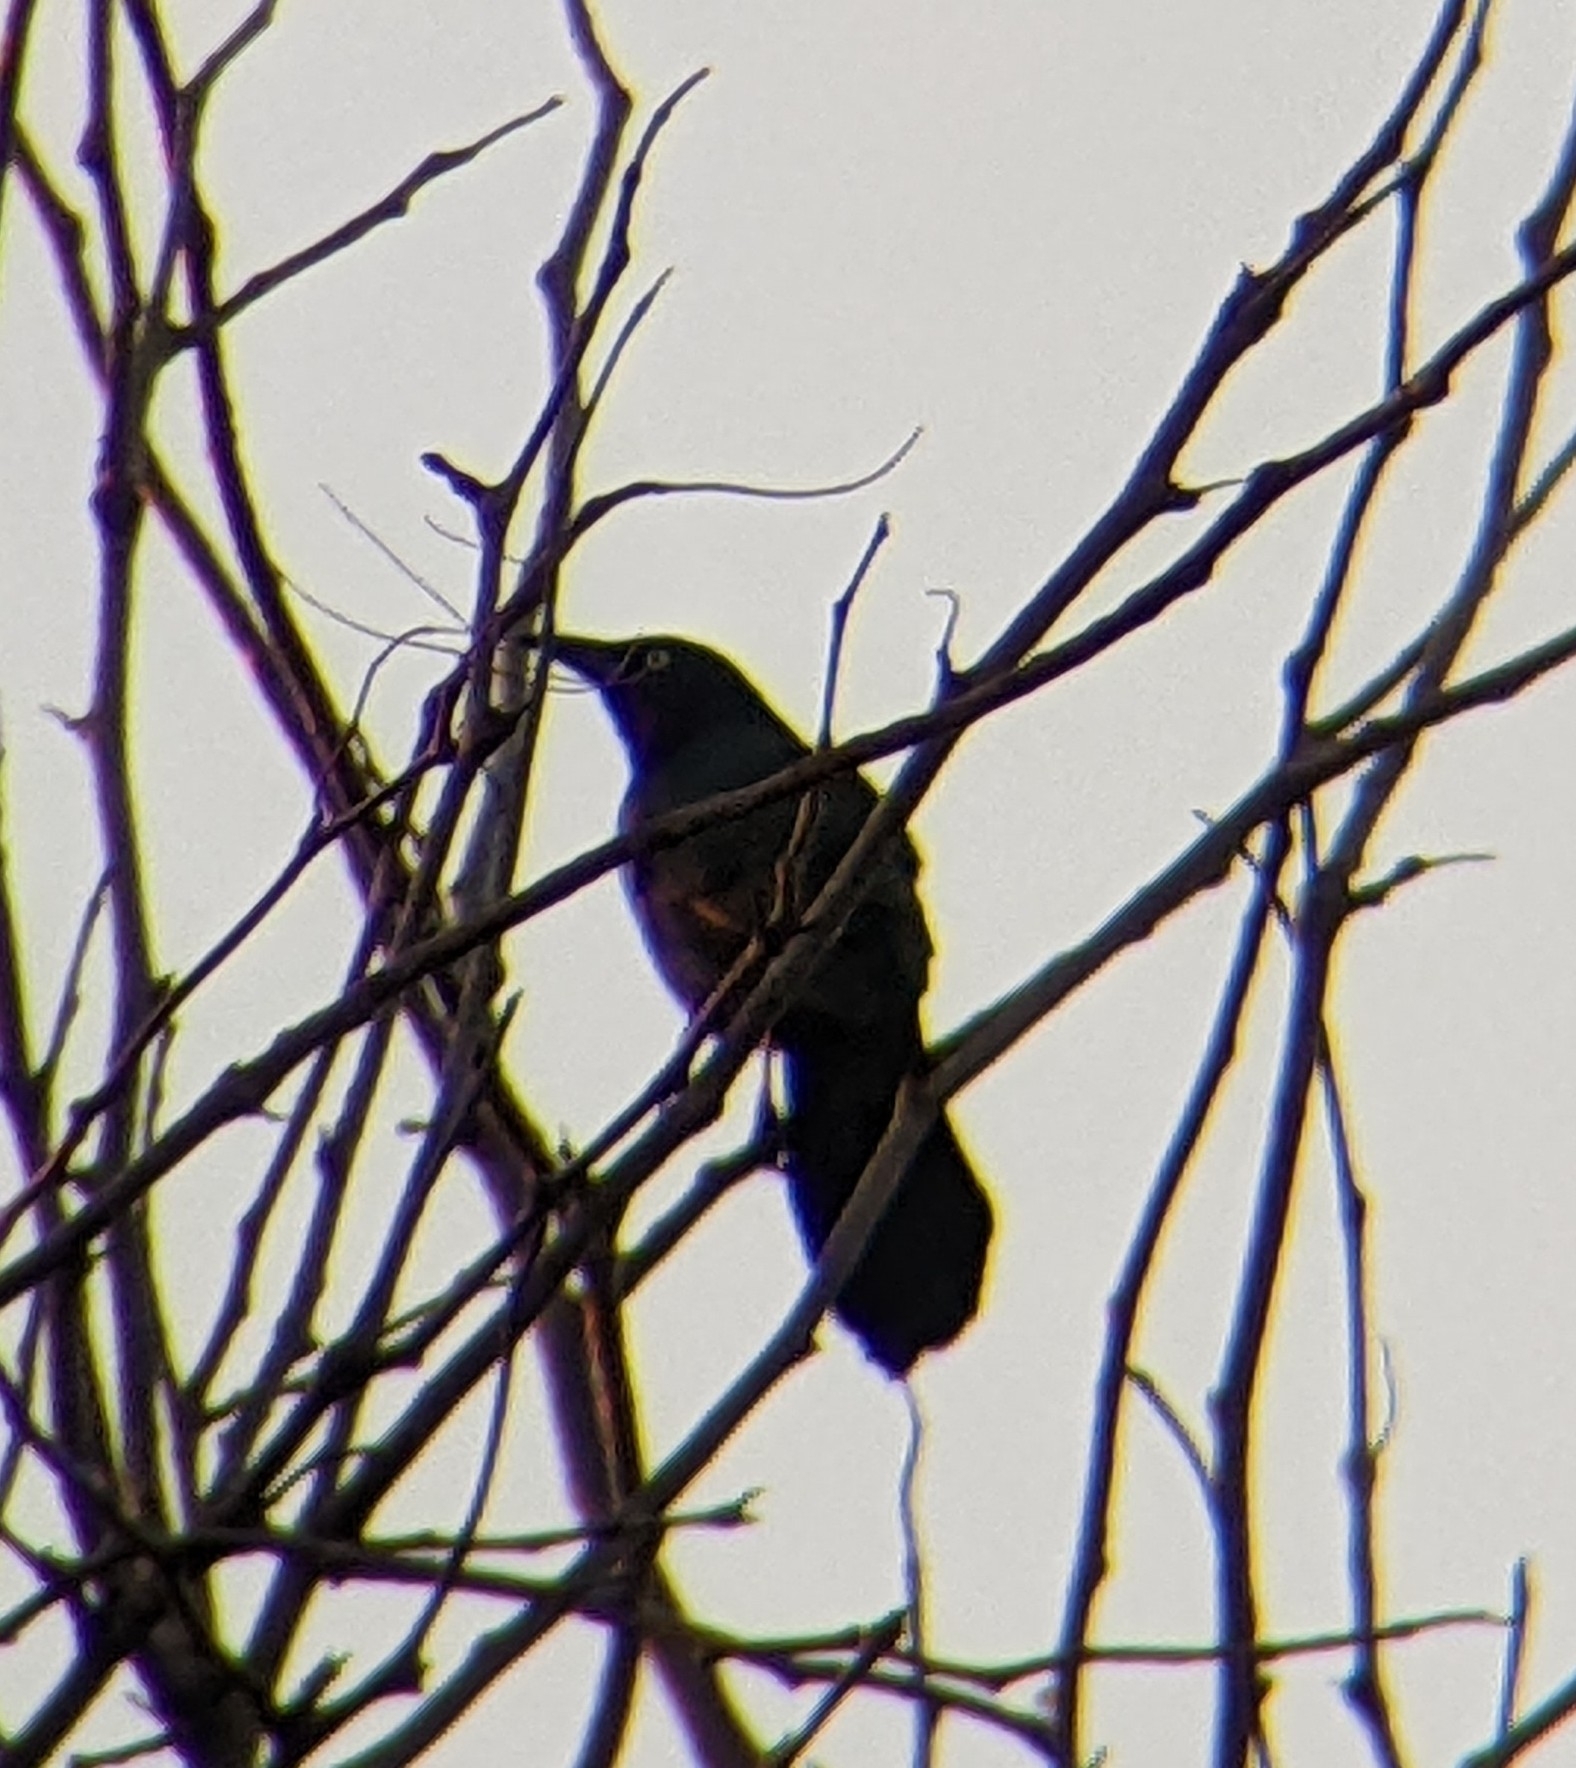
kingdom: Animalia
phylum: Chordata
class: Aves
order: Passeriformes
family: Icteridae
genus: Quiscalus
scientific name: Quiscalus quiscula
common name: Common grackle
